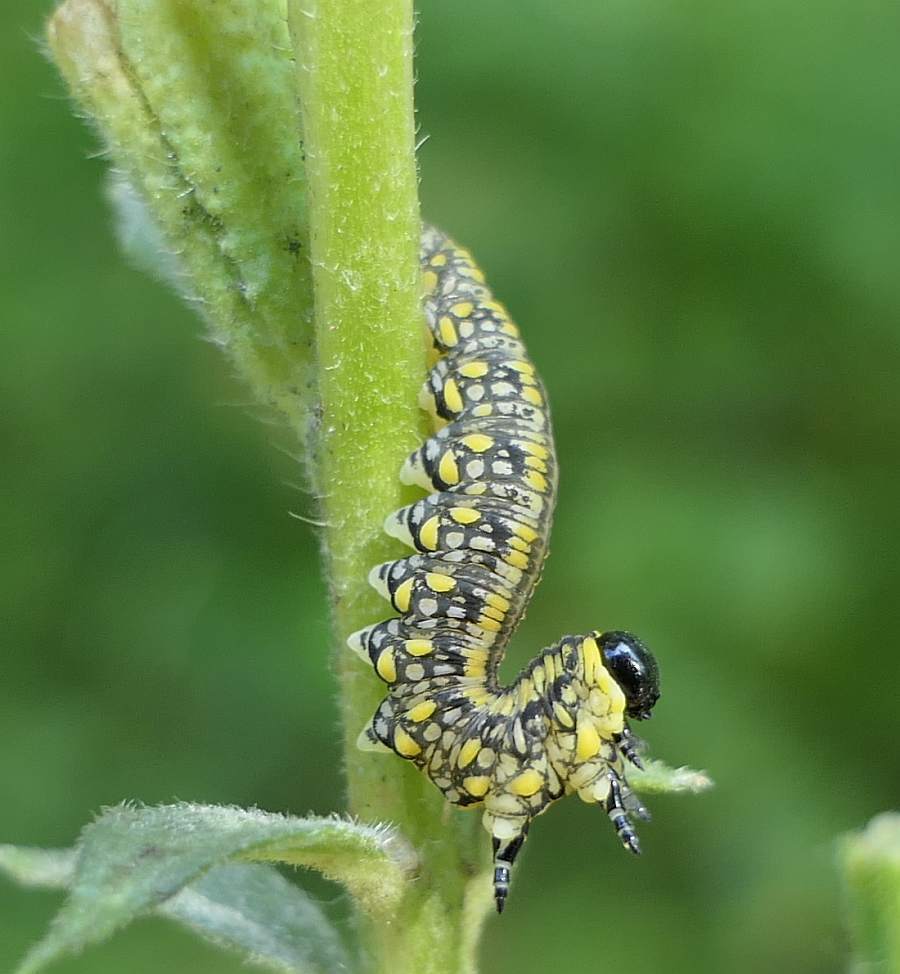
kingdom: Animalia
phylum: Arthropoda
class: Insecta
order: Hymenoptera
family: Diprionidae
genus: Diprion
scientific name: Diprion similis
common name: Pine sawfly
